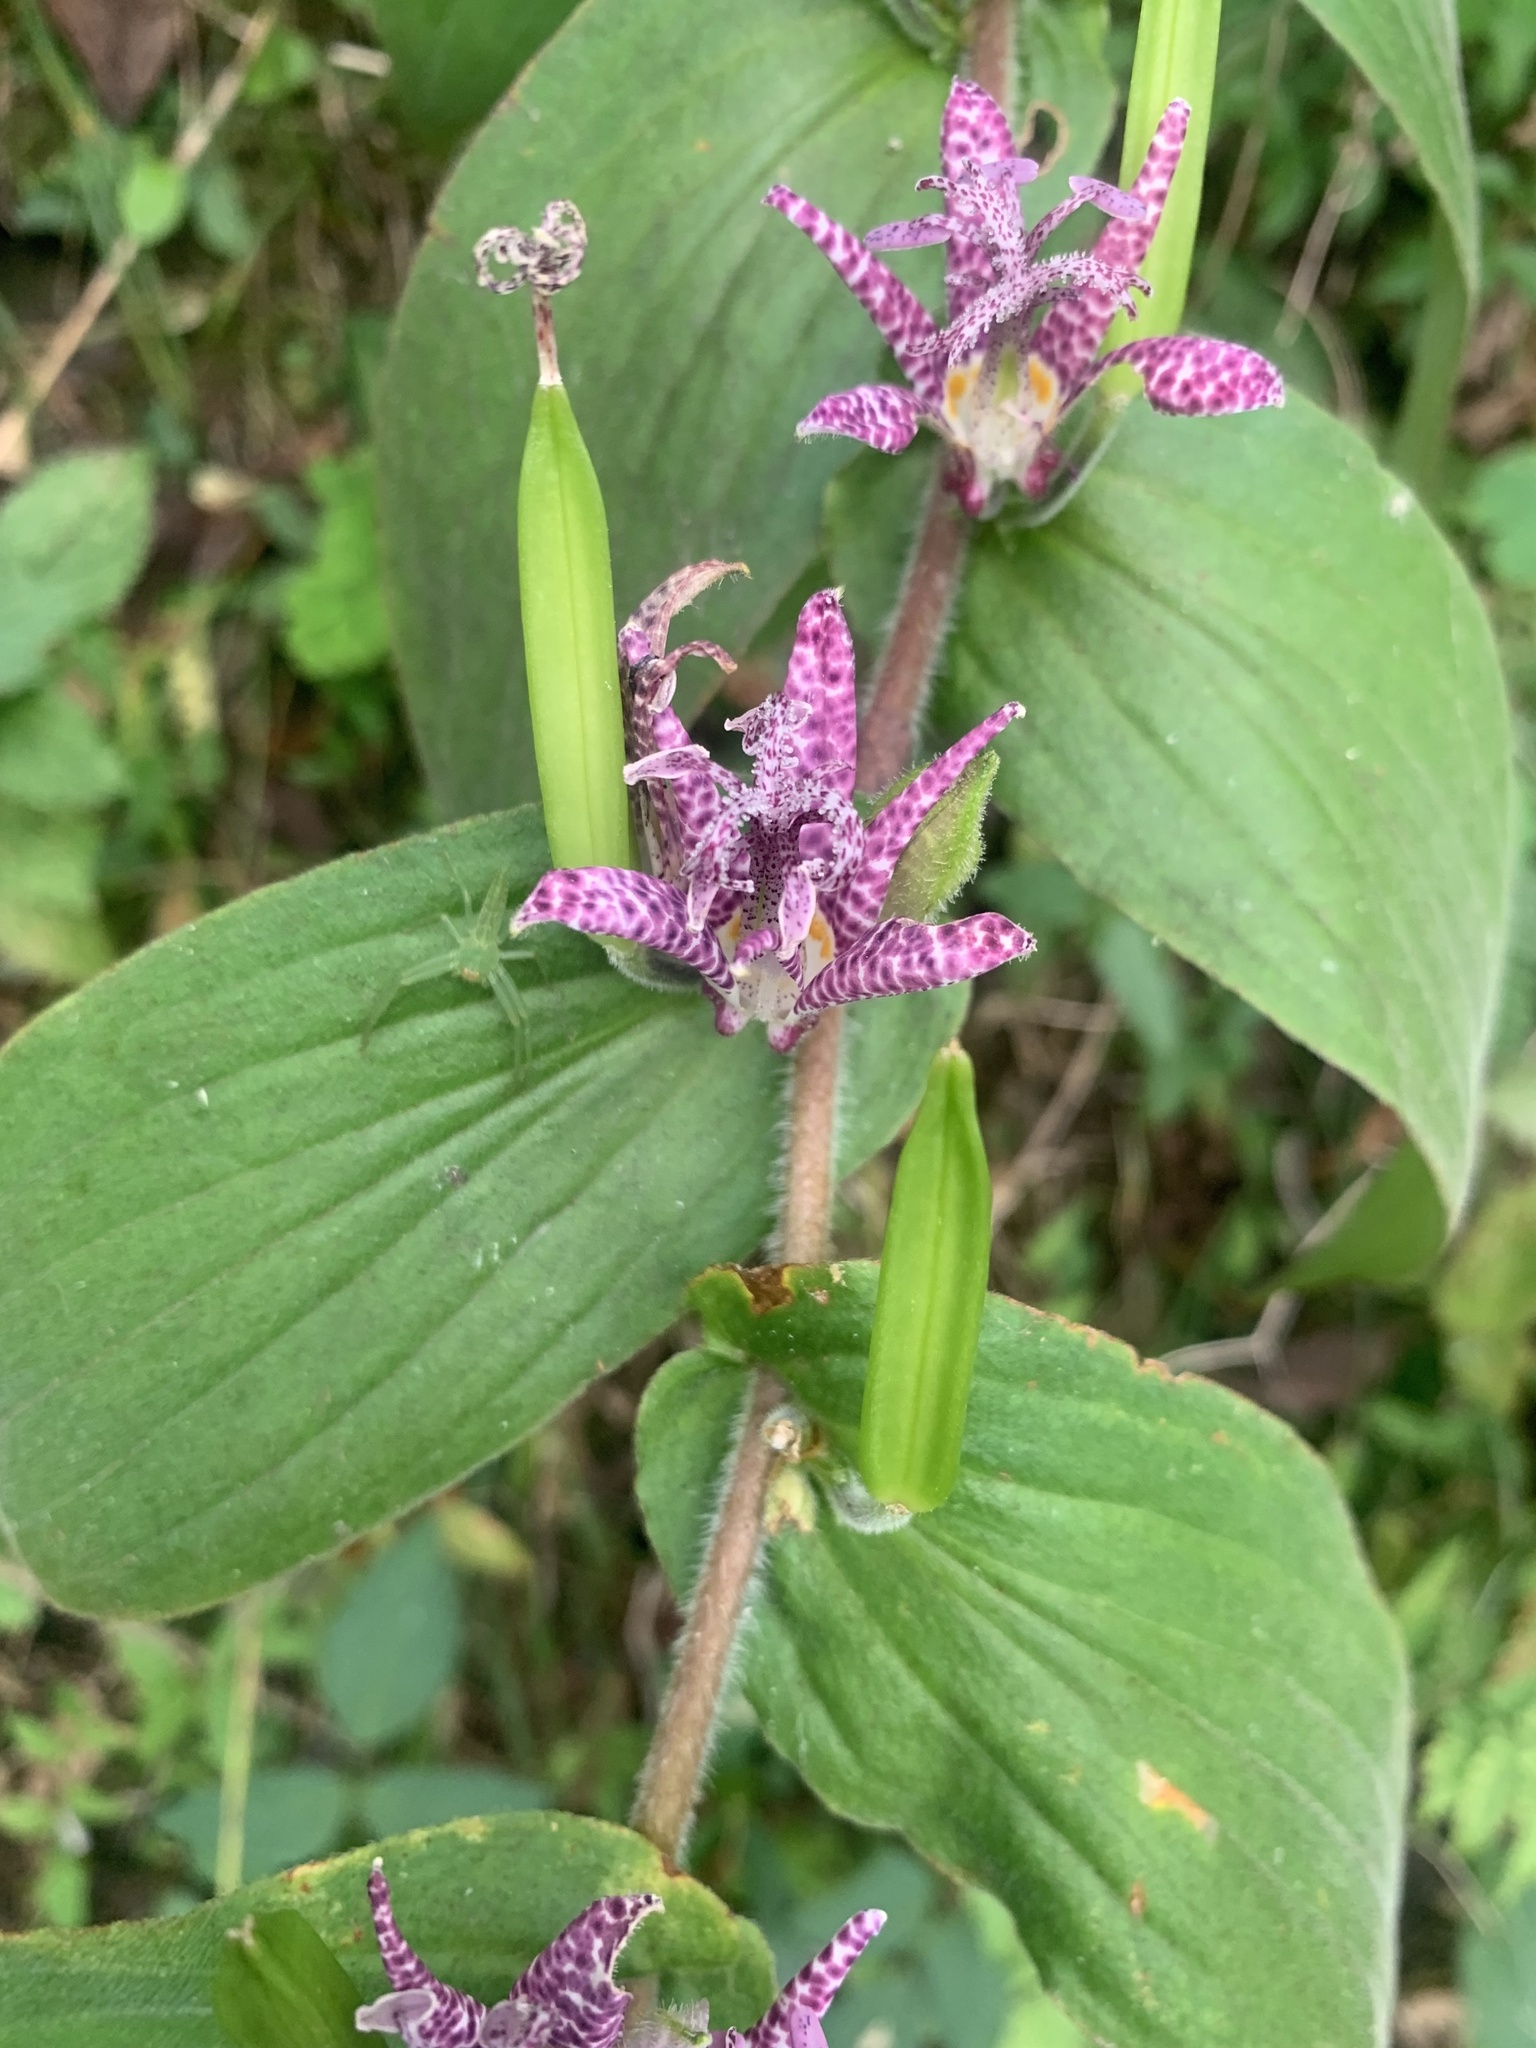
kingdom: Plantae
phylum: Tracheophyta
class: Liliopsida
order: Liliales
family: Liliaceae
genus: Tricyrtis
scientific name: Tricyrtis hirta
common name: Toadlily
